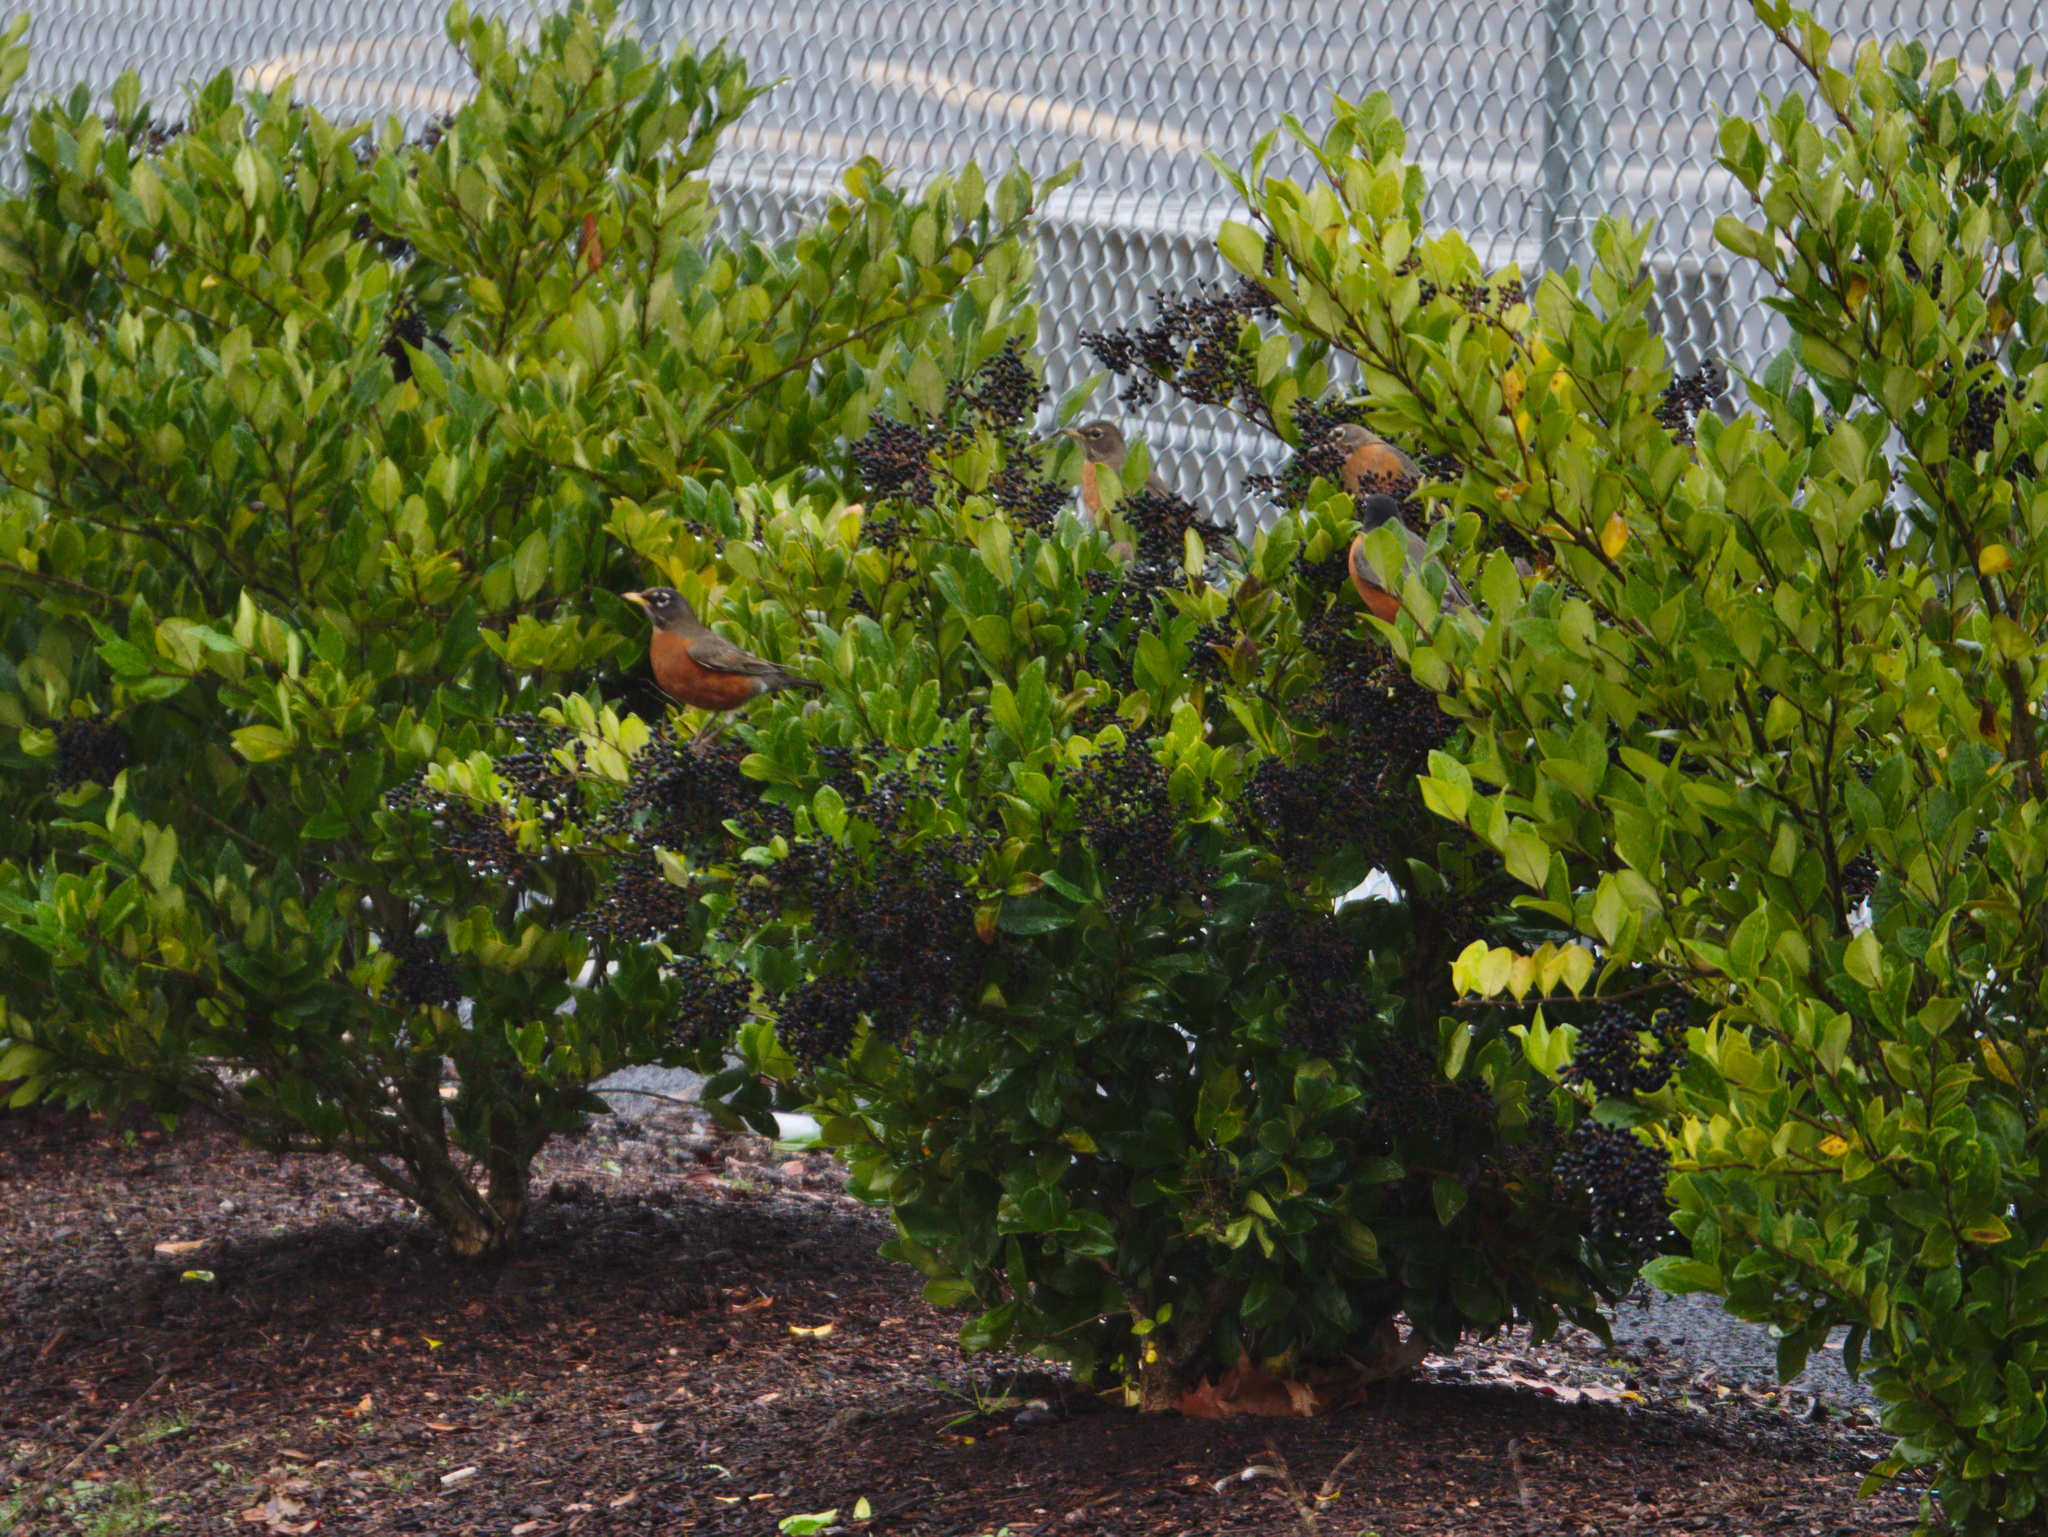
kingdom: Animalia
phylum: Chordata
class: Aves
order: Passeriformes
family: Turdidae
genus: Turdus
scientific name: Turdus migratorius
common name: American robin
